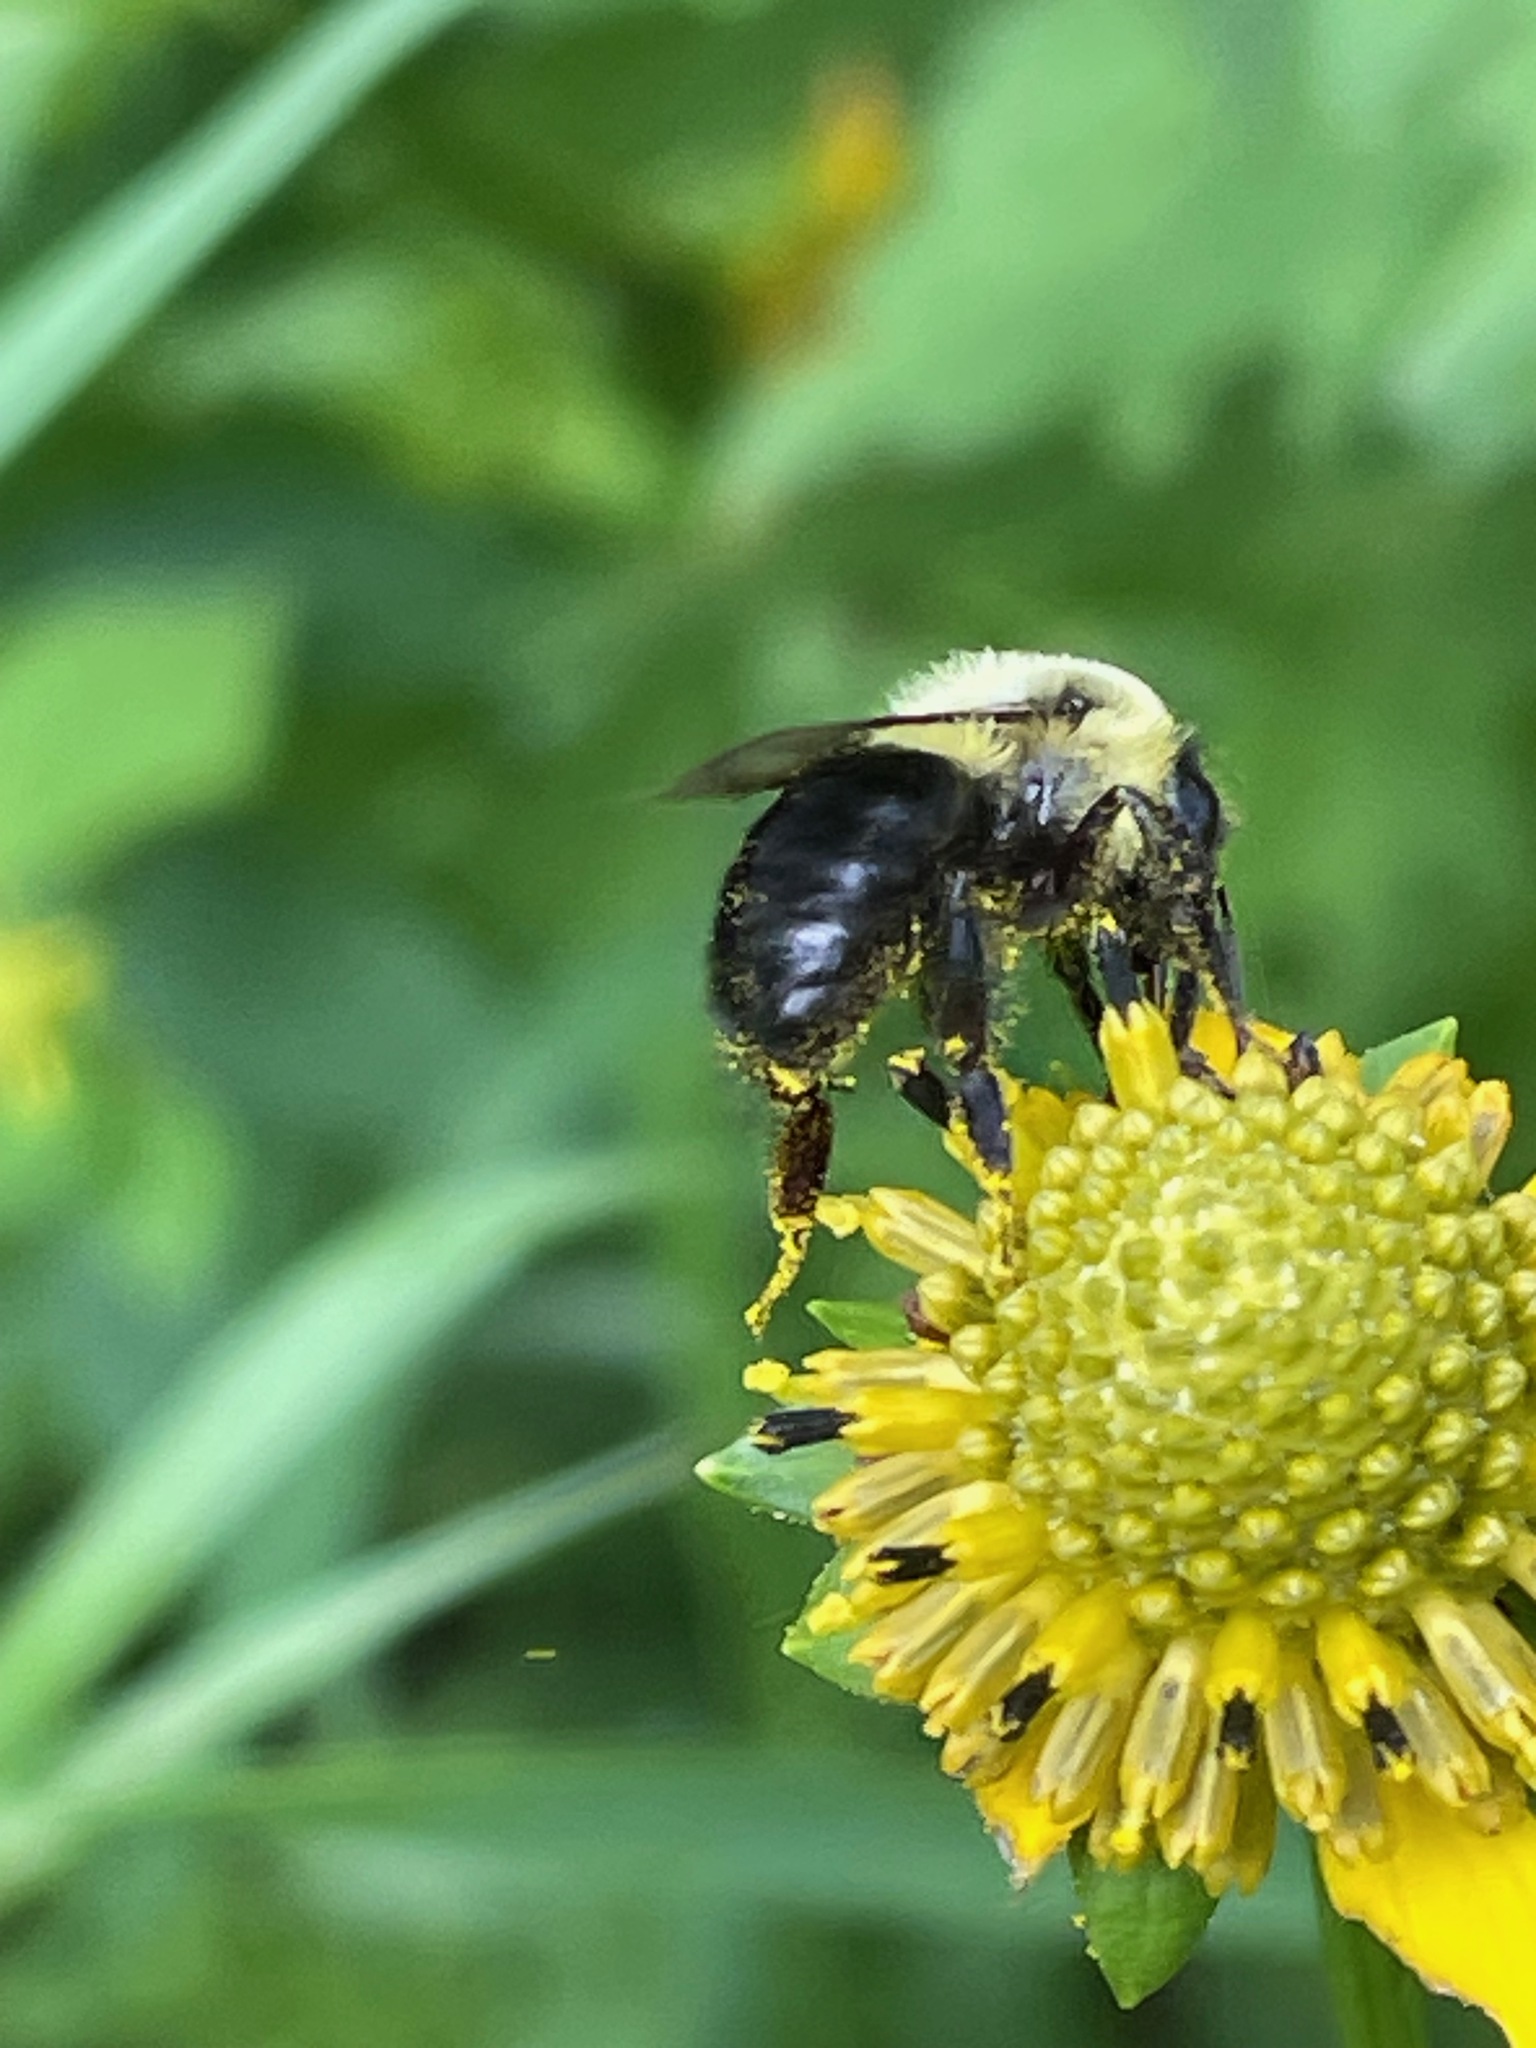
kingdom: Animalia
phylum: Arthropoda
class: Insecta
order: Hymenoptera
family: Apidae
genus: Bombus
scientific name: Bombus impatiens
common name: Common eastern bumble bee
